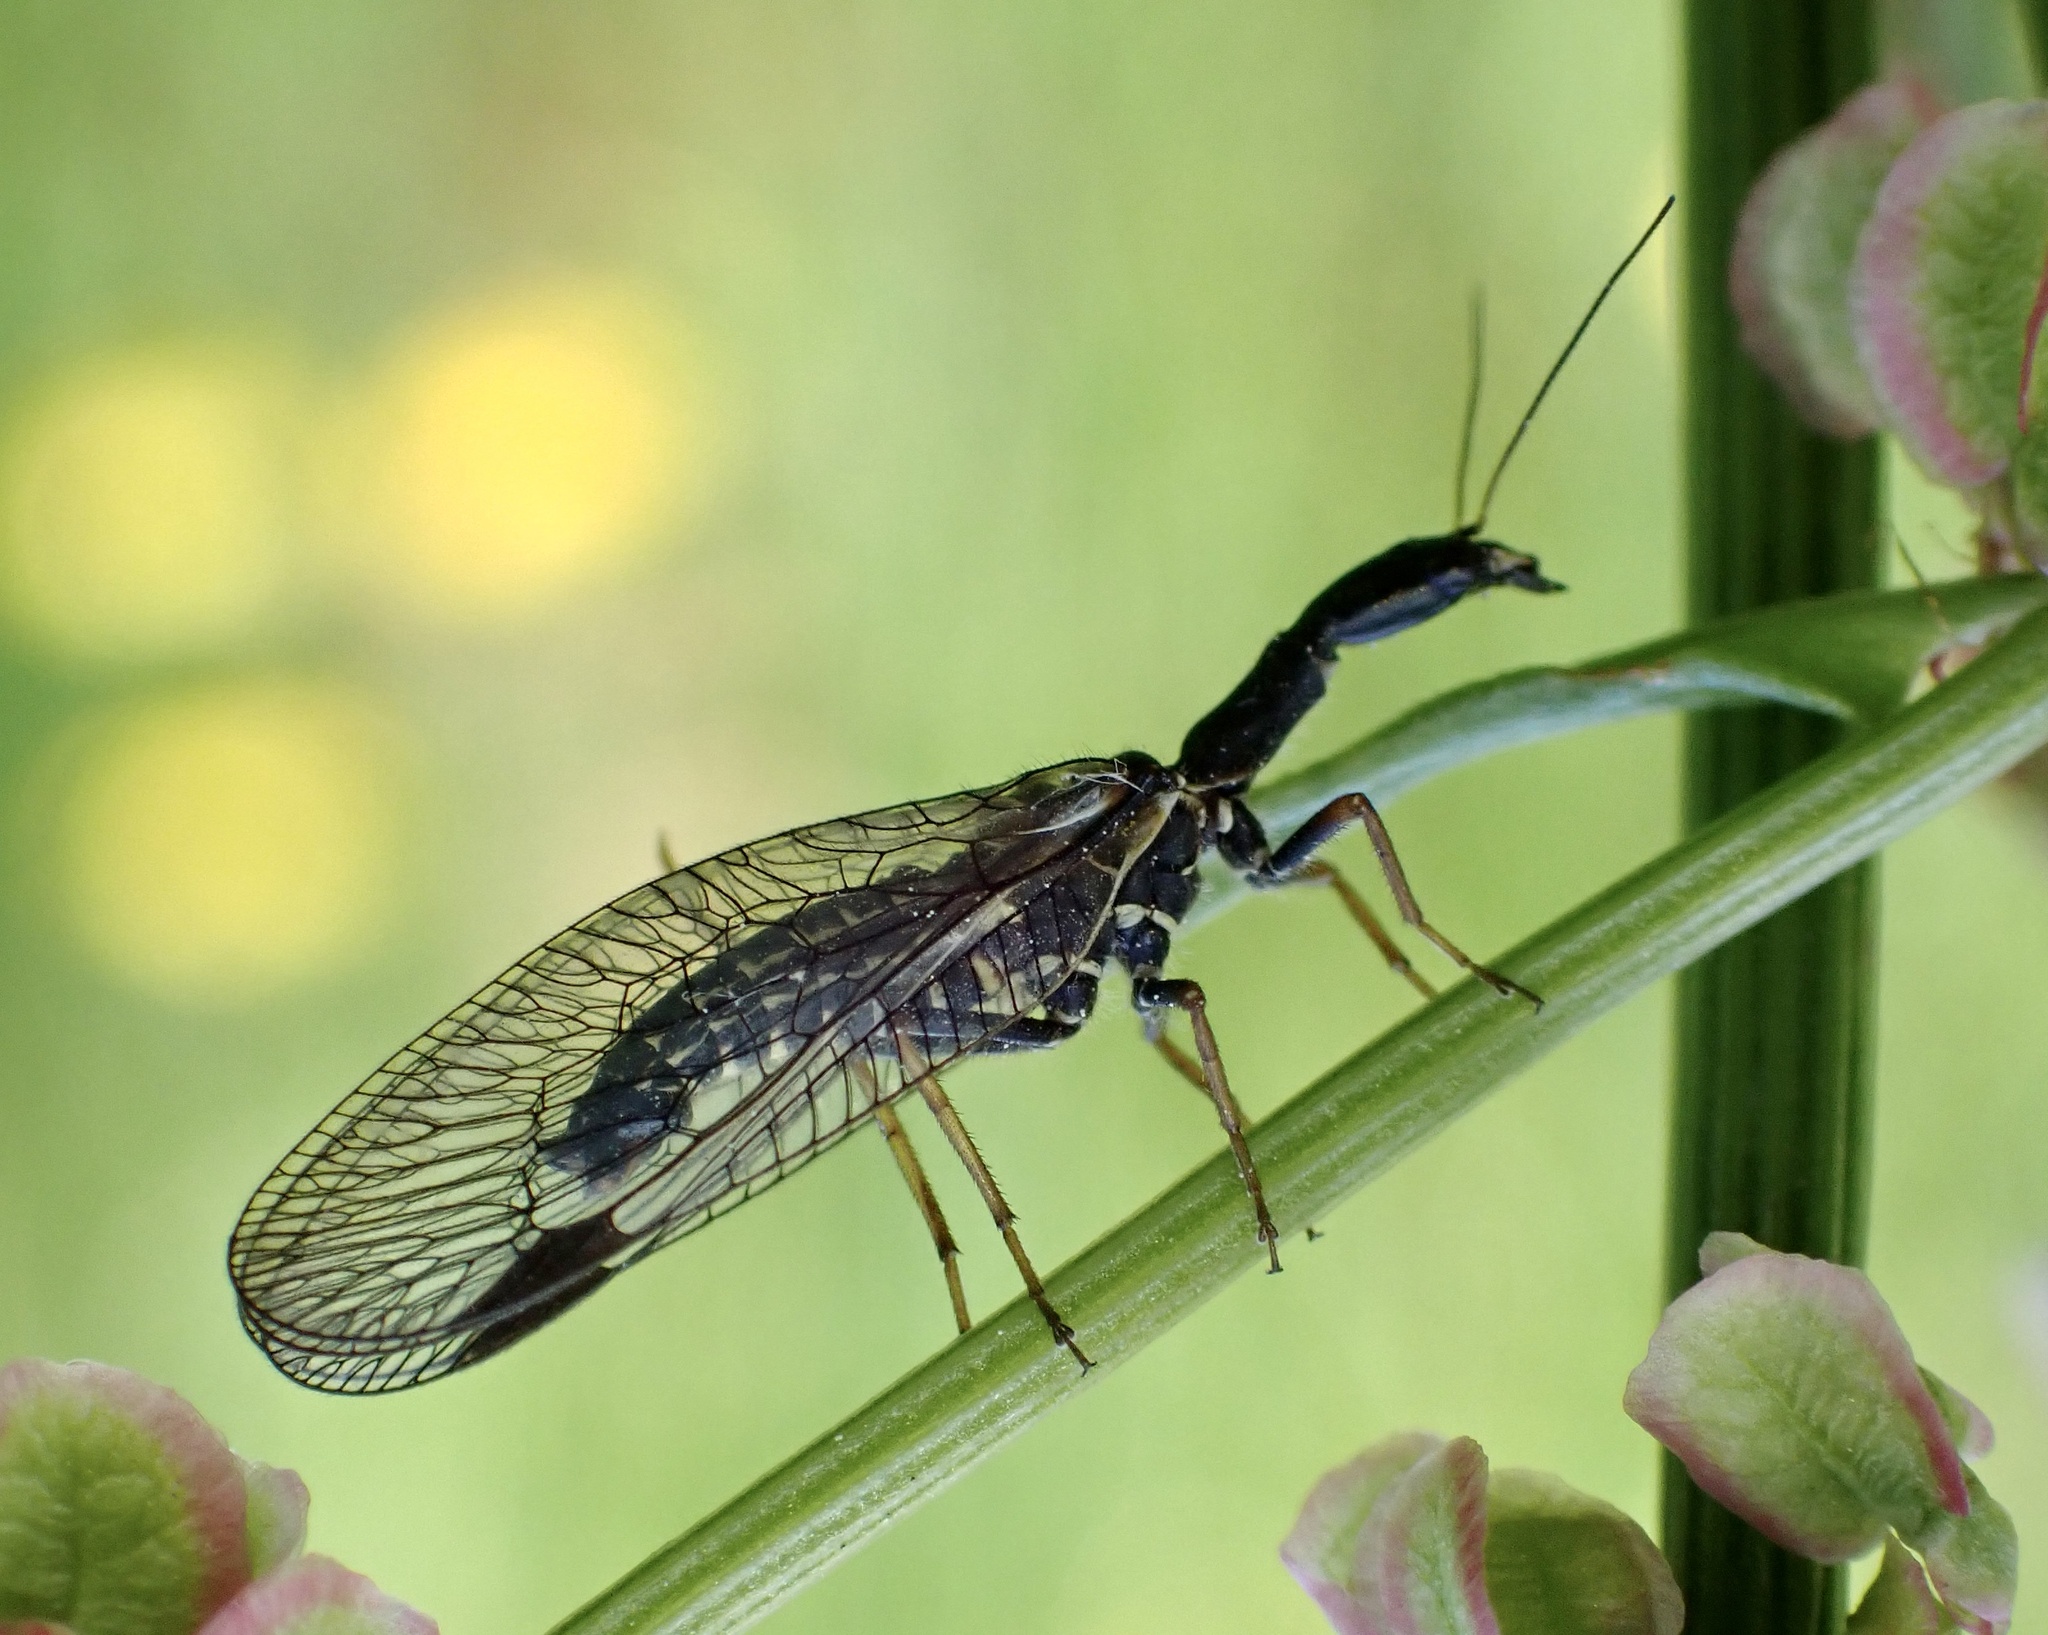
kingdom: Animalia
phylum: Arthropoda
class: Insecta
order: Raphidioptera
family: Raphidiidae
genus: Phaeostigma
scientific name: Phaeostigma notatum
